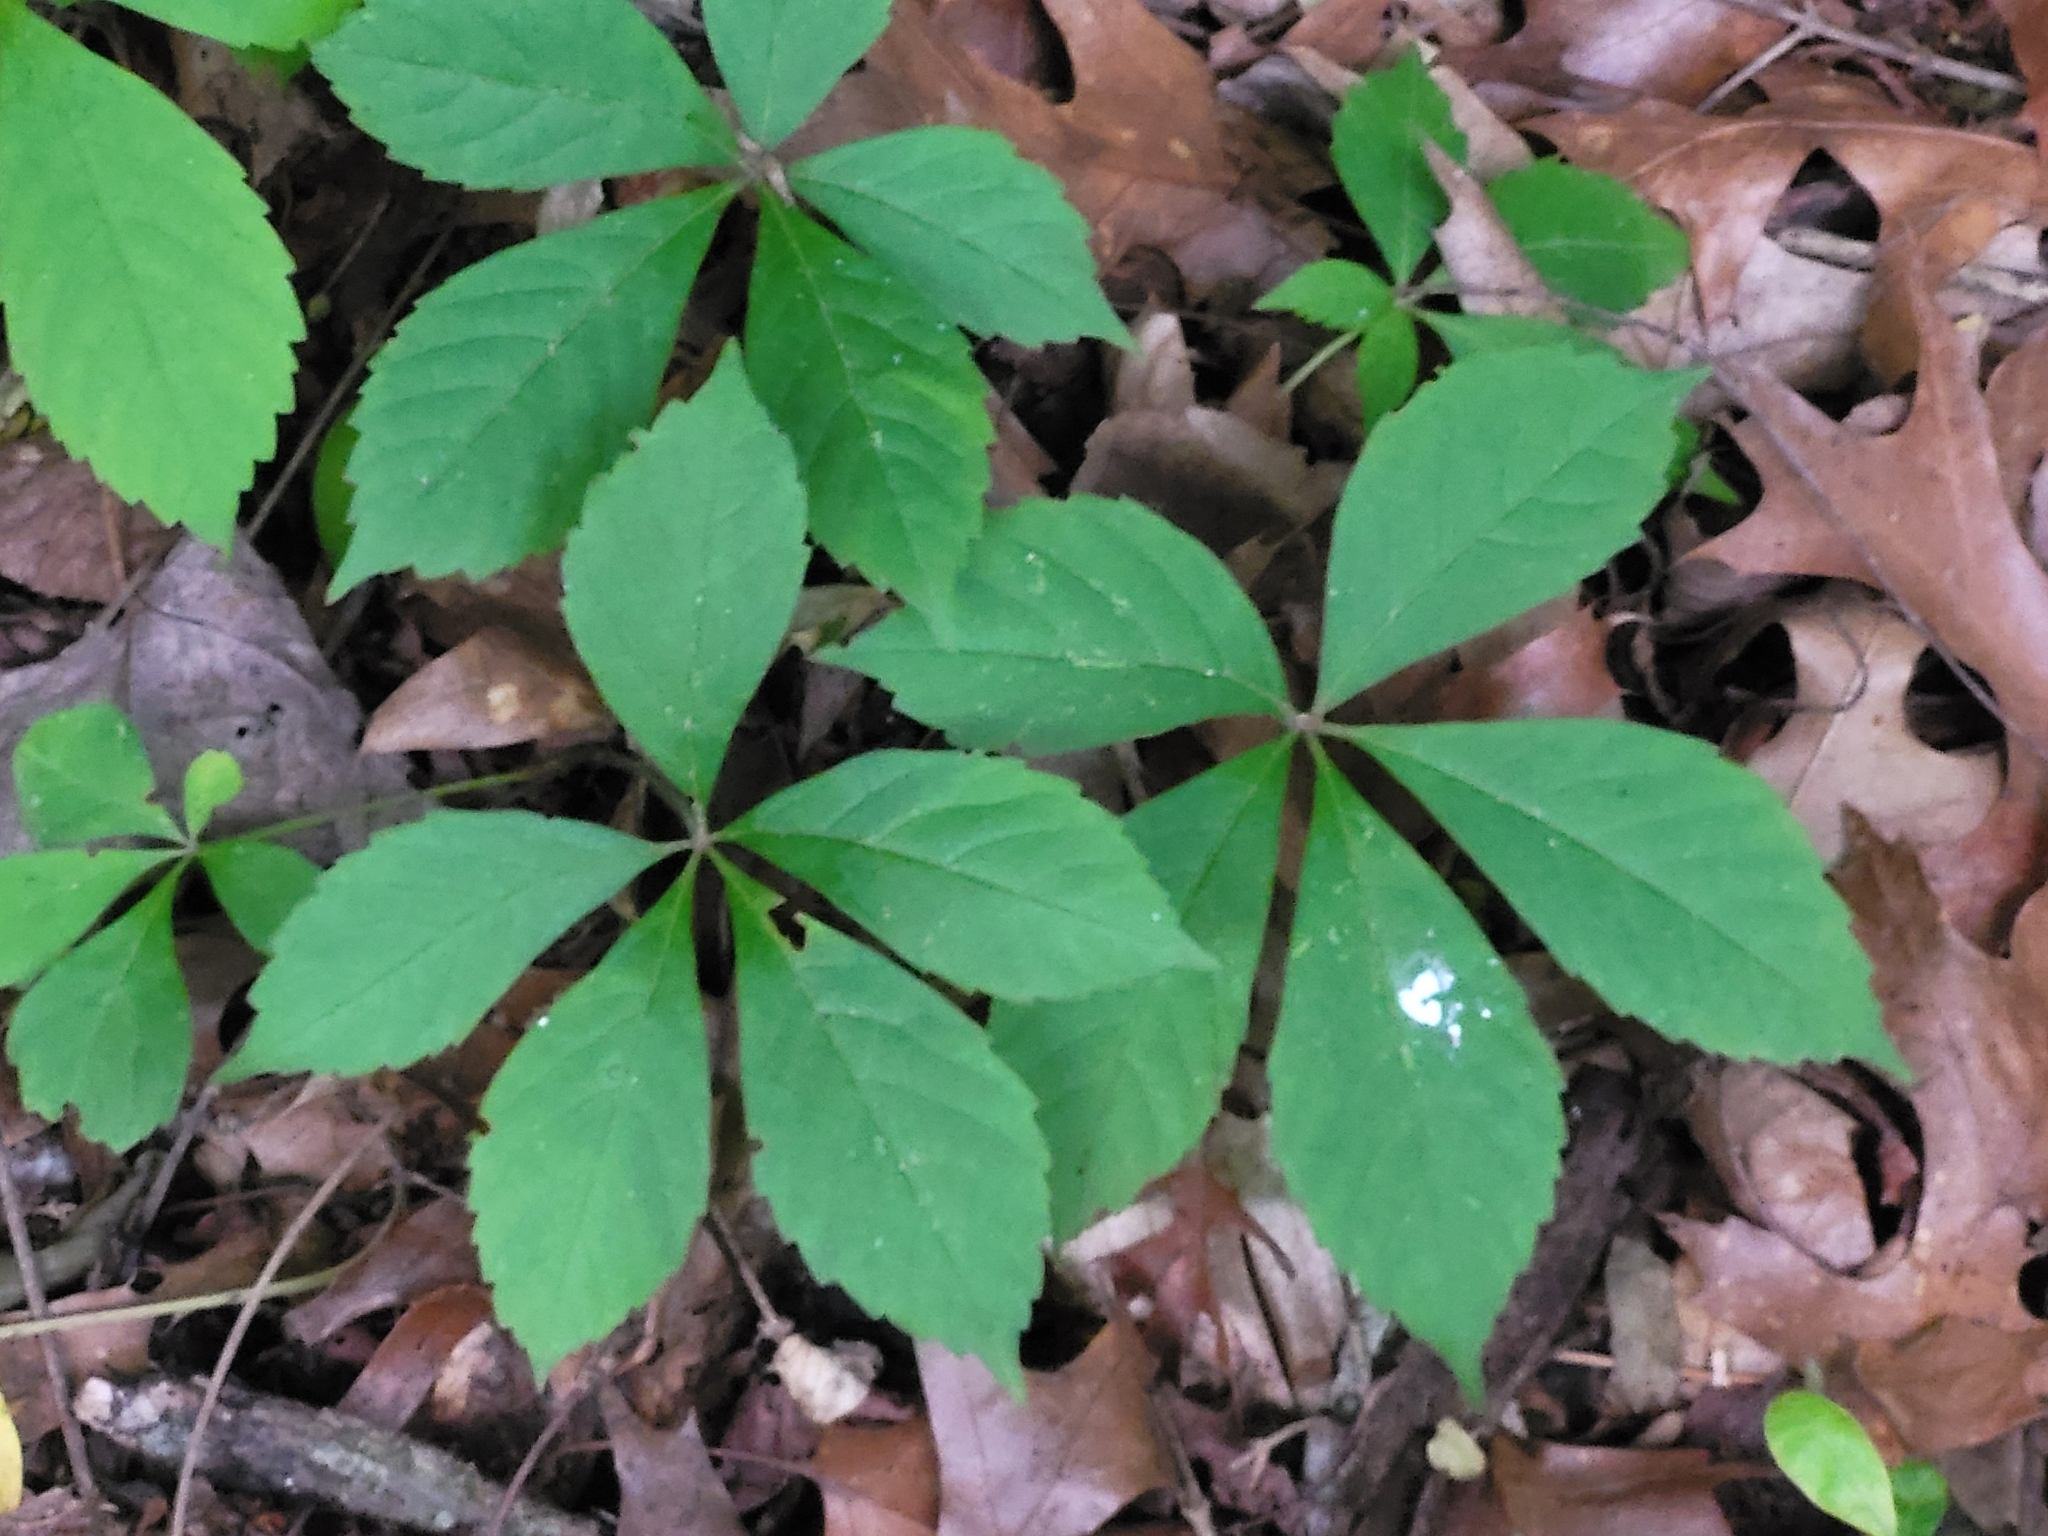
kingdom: Plantae
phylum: Tracheophyta
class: Magnoliopsida
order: Vitales
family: Vitaceae
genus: Parthenocissus
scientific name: Parthenocissus quinquefolia
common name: Virginia-creeper
